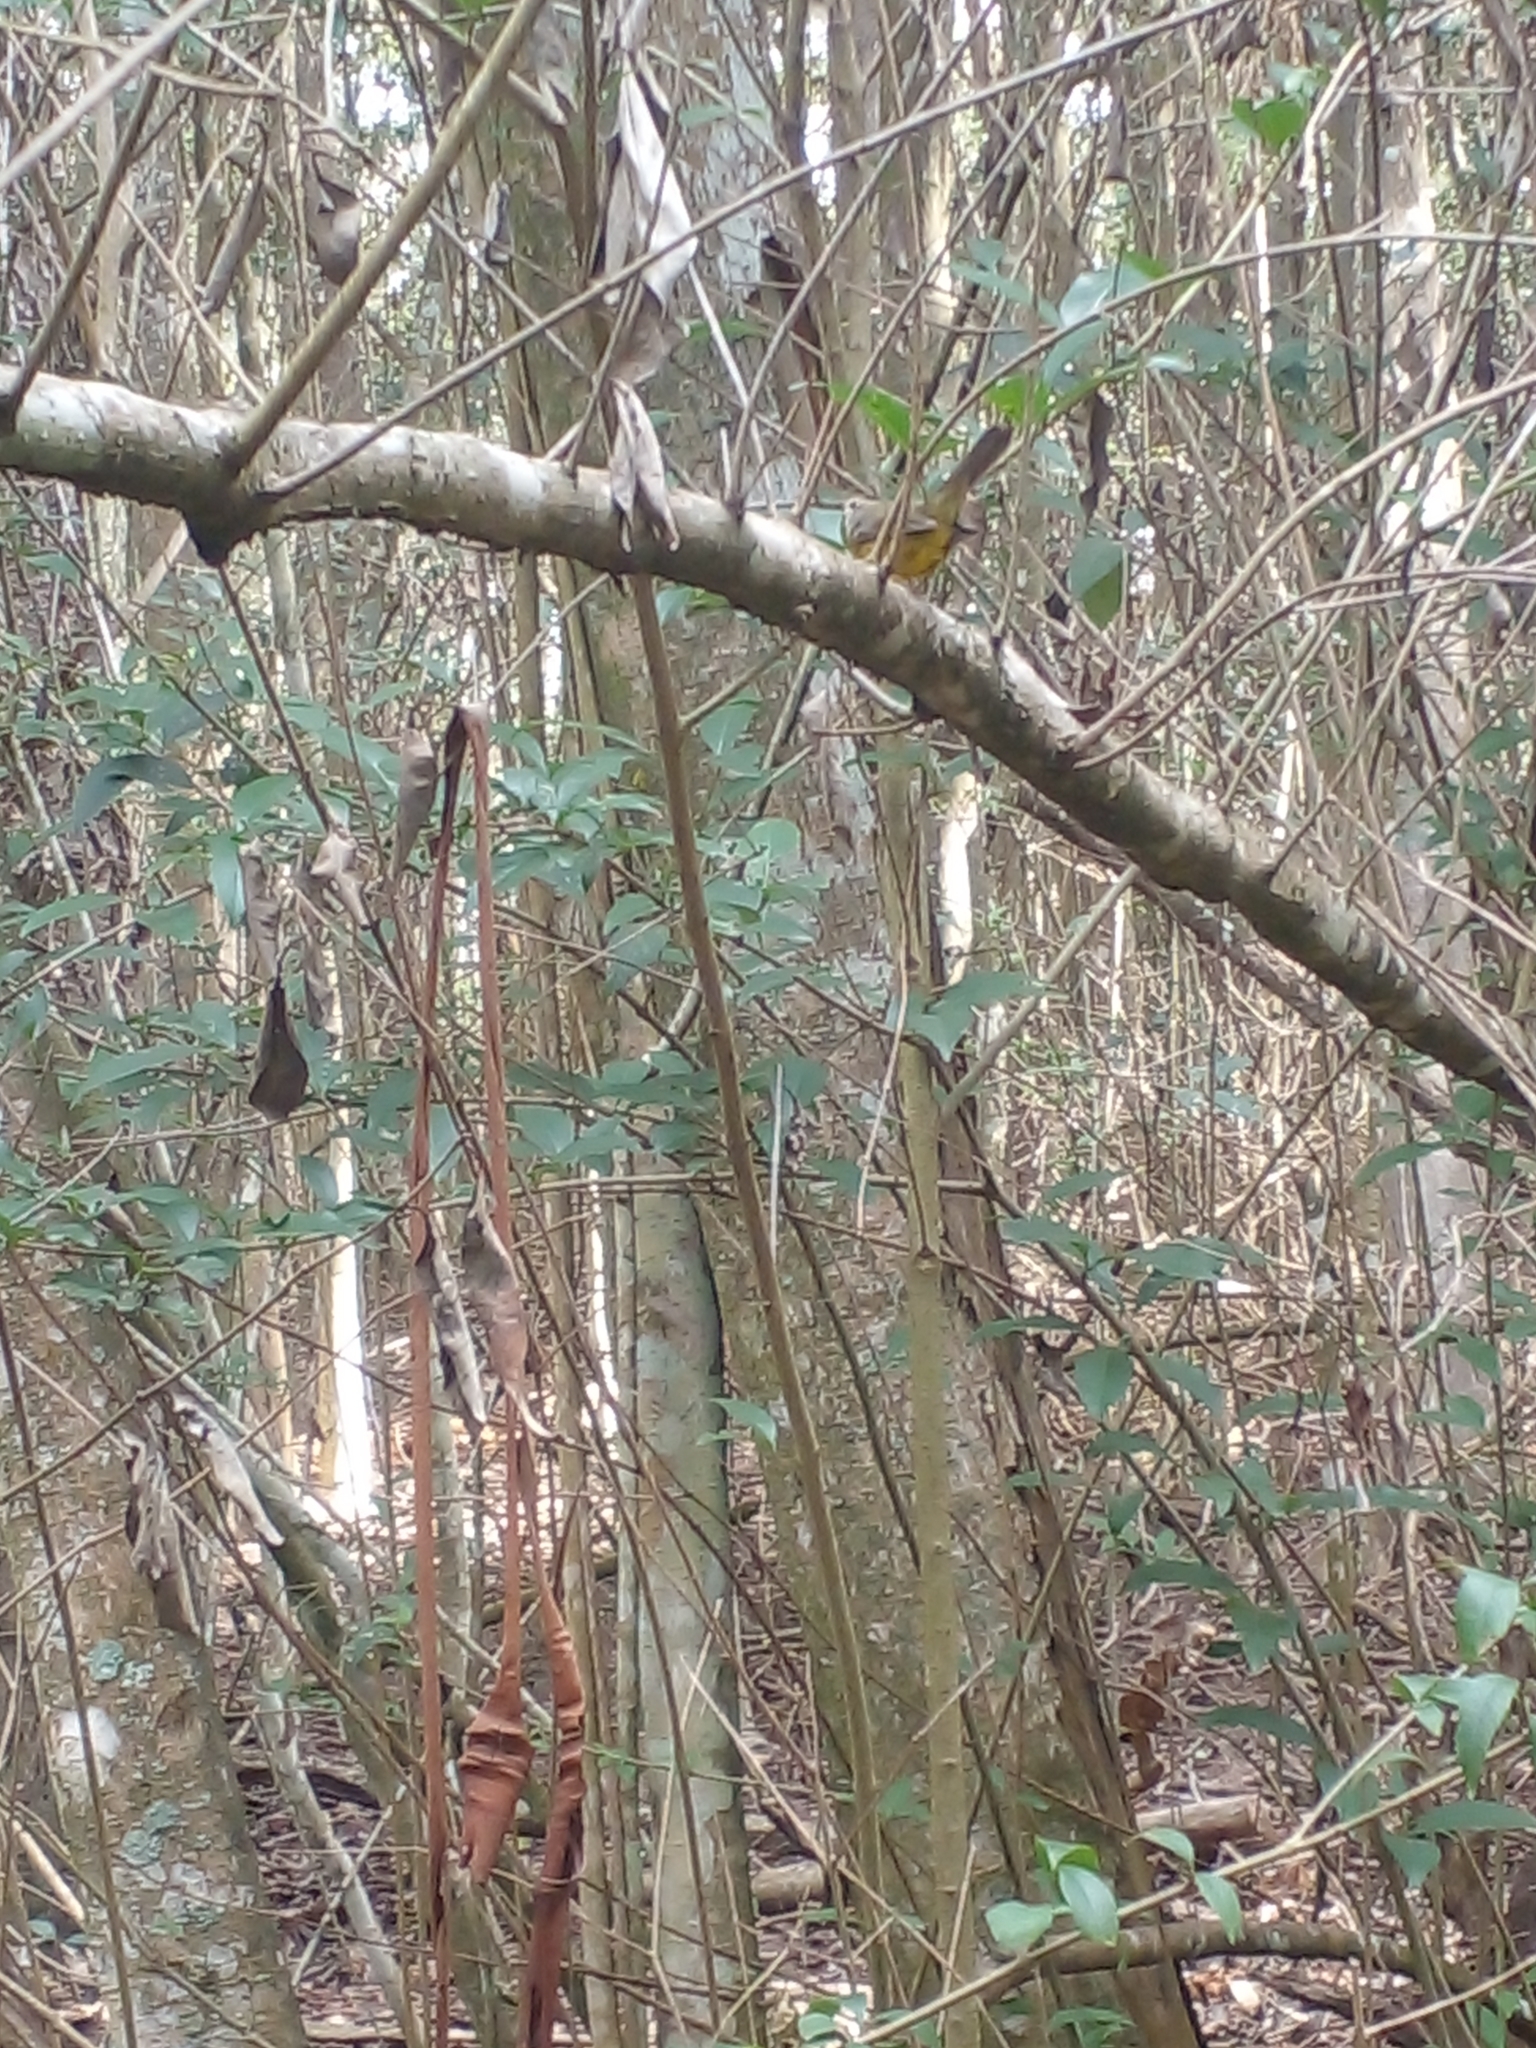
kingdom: Animalia
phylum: Chordata
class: Aves
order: Passeriformes
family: Parulidae
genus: Basileuterus
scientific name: Basileuterus culicivorus
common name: Golden-crowned warbler
